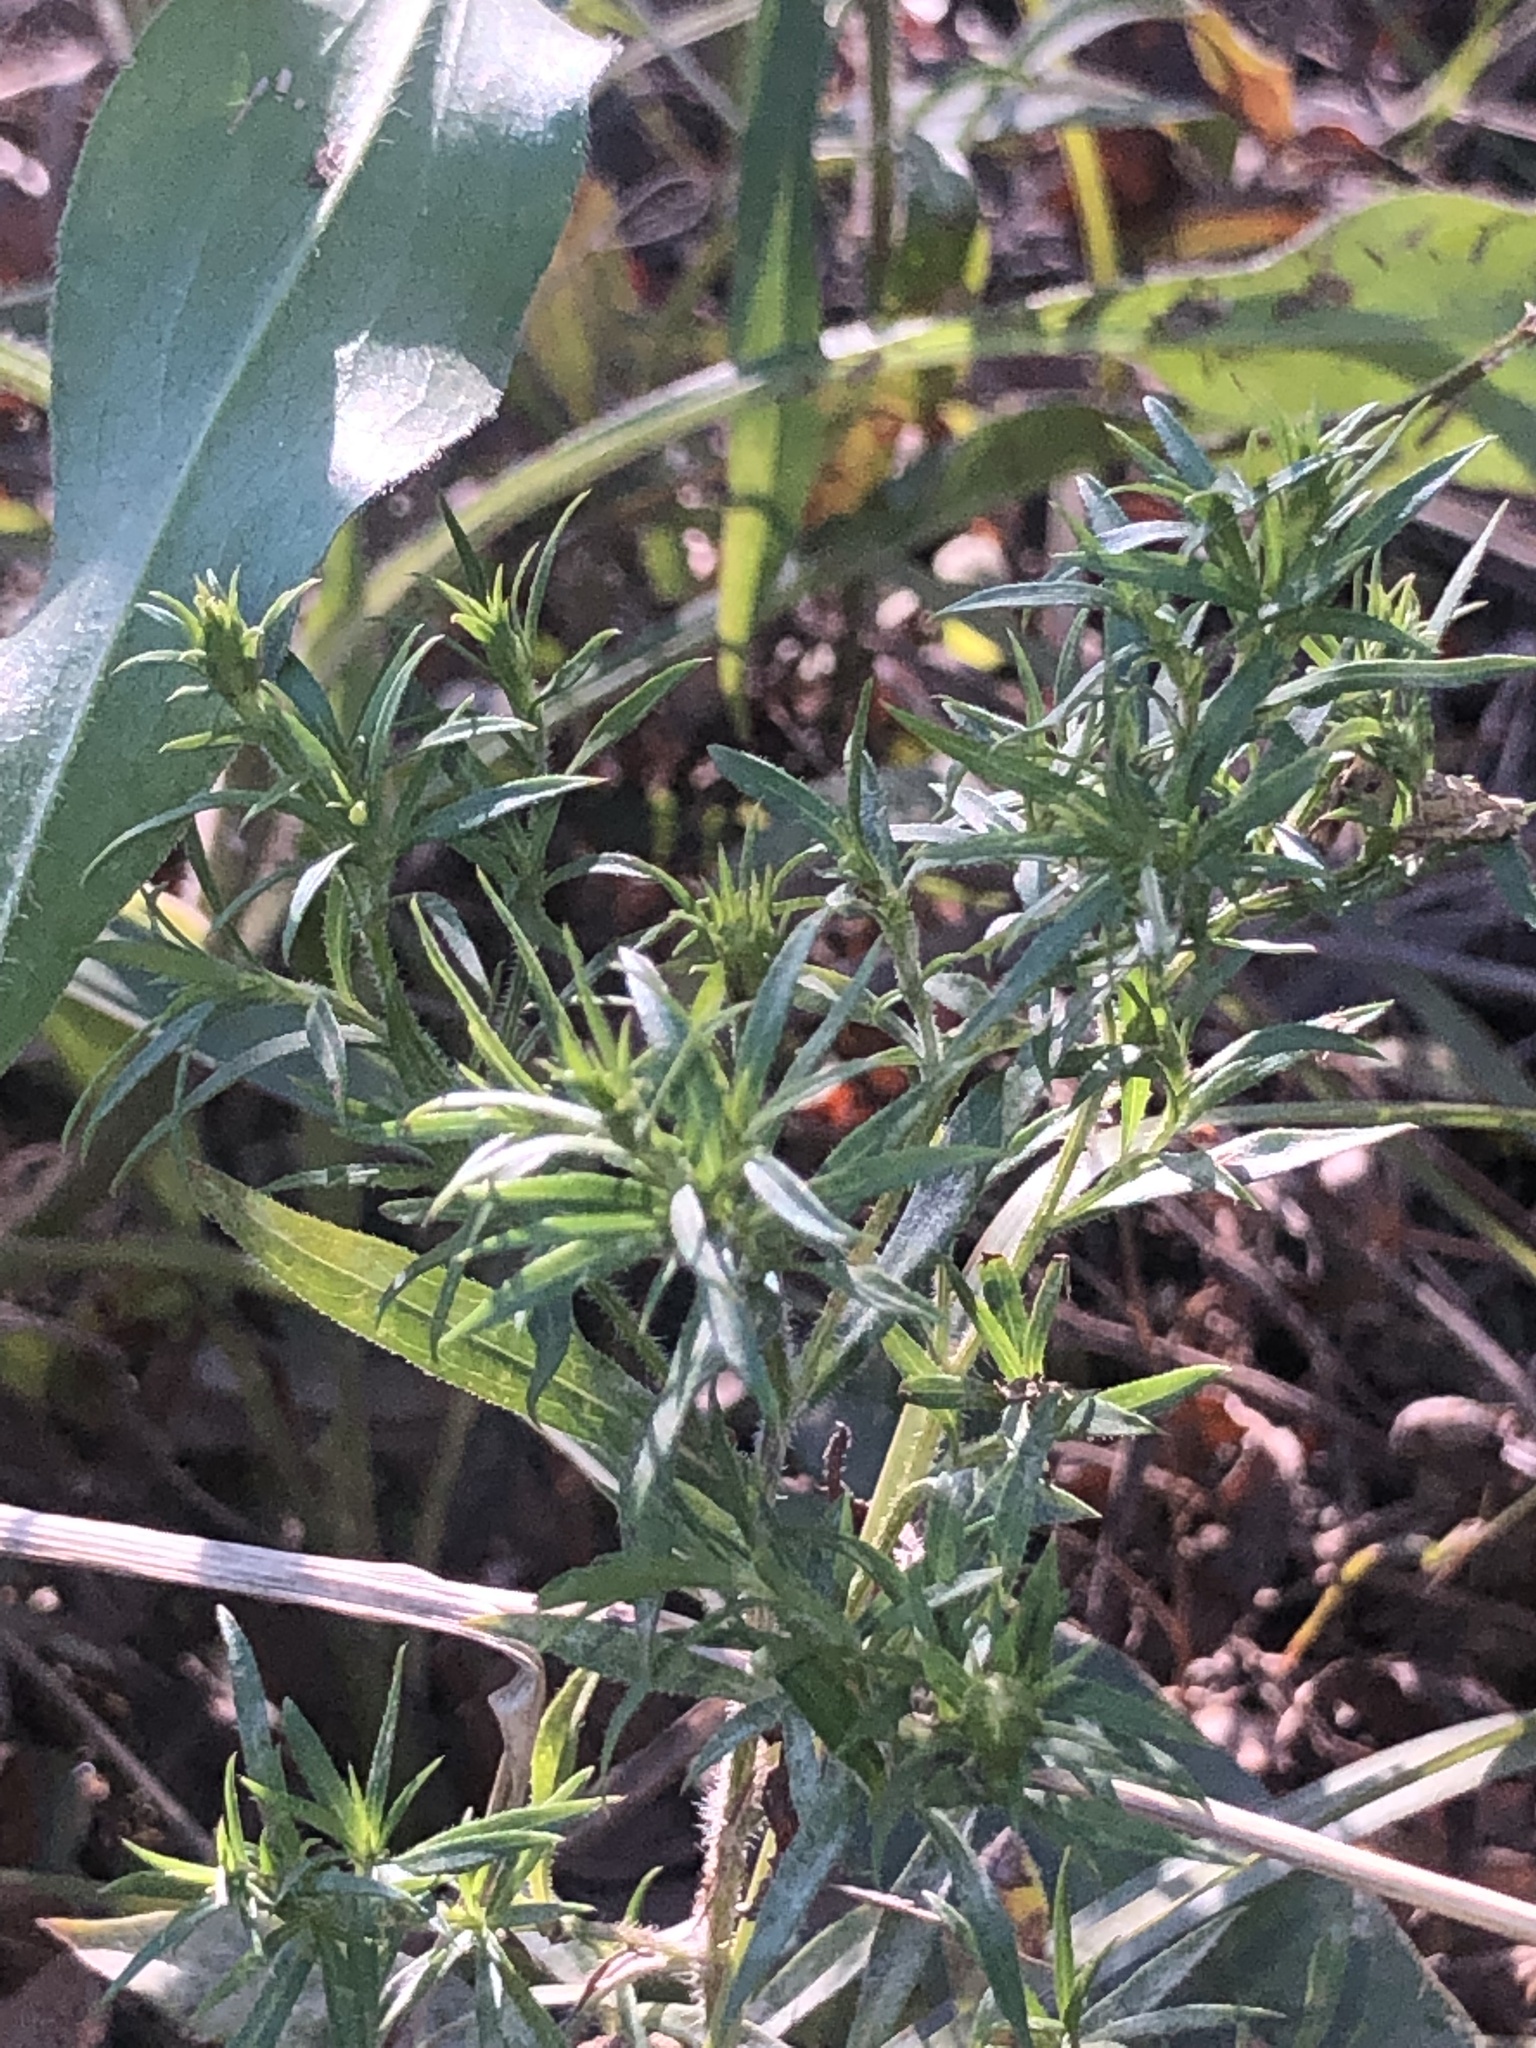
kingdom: Plantae
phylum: Tracheophyta
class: Magnoliopsida
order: Asterales
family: Asteraceae
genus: Symphyotrichum
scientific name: Symphyotrichum pilosum
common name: Awl aster
